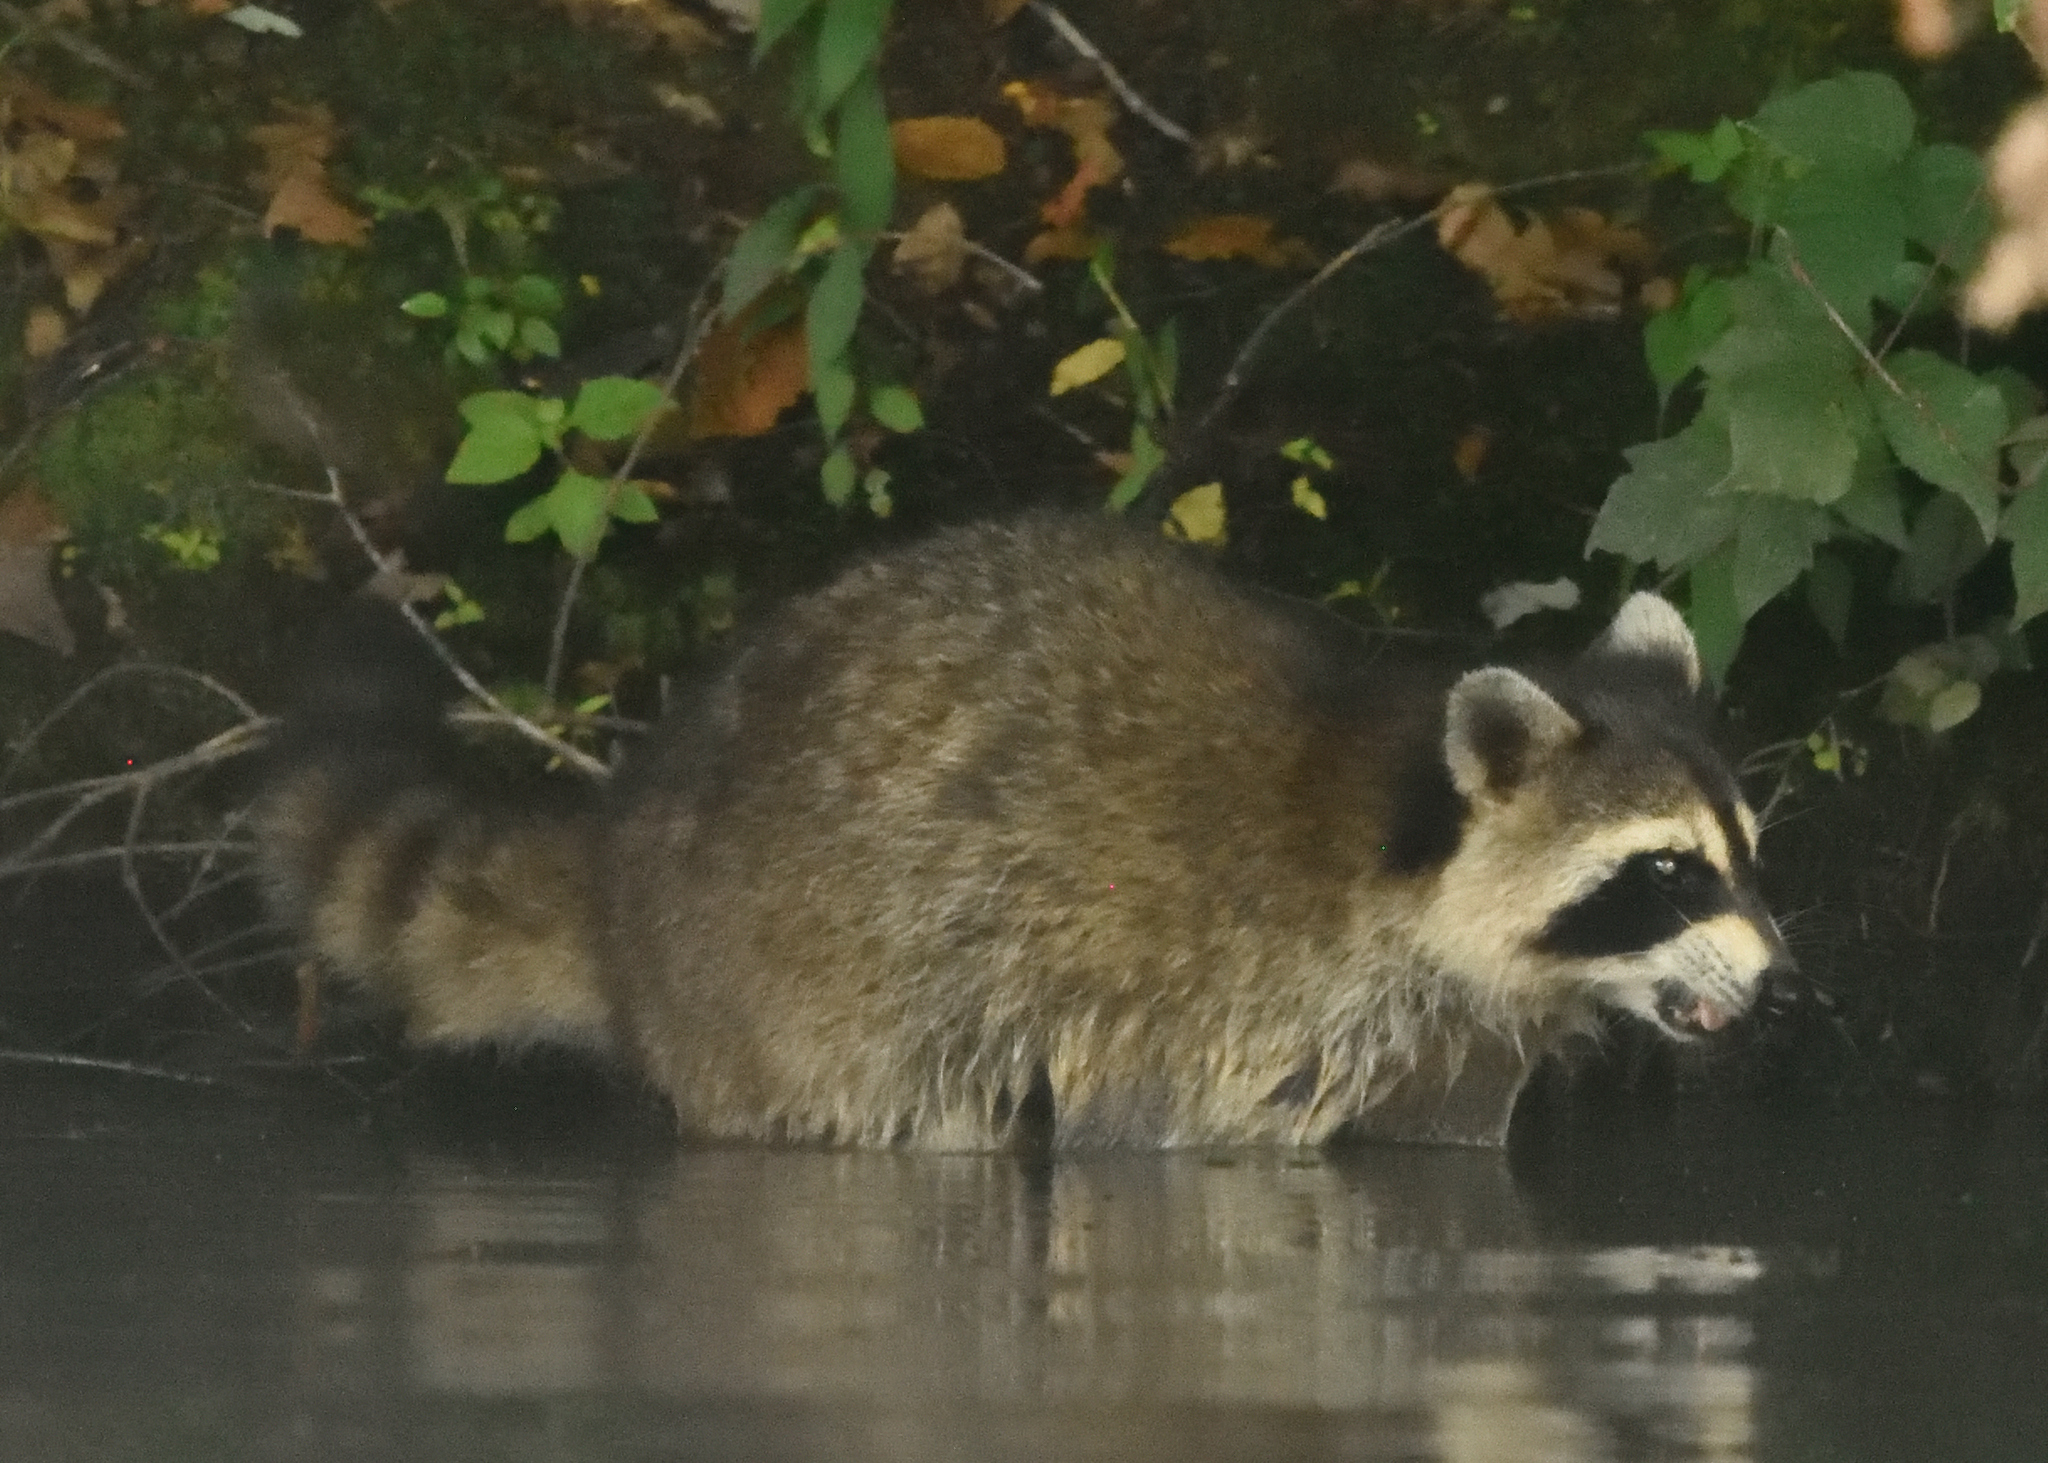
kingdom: Animalia
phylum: Chordata
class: Mammalia
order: Carnivora
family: Procyonidae
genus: Procyon
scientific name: Procyon lotor
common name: Raccoon
